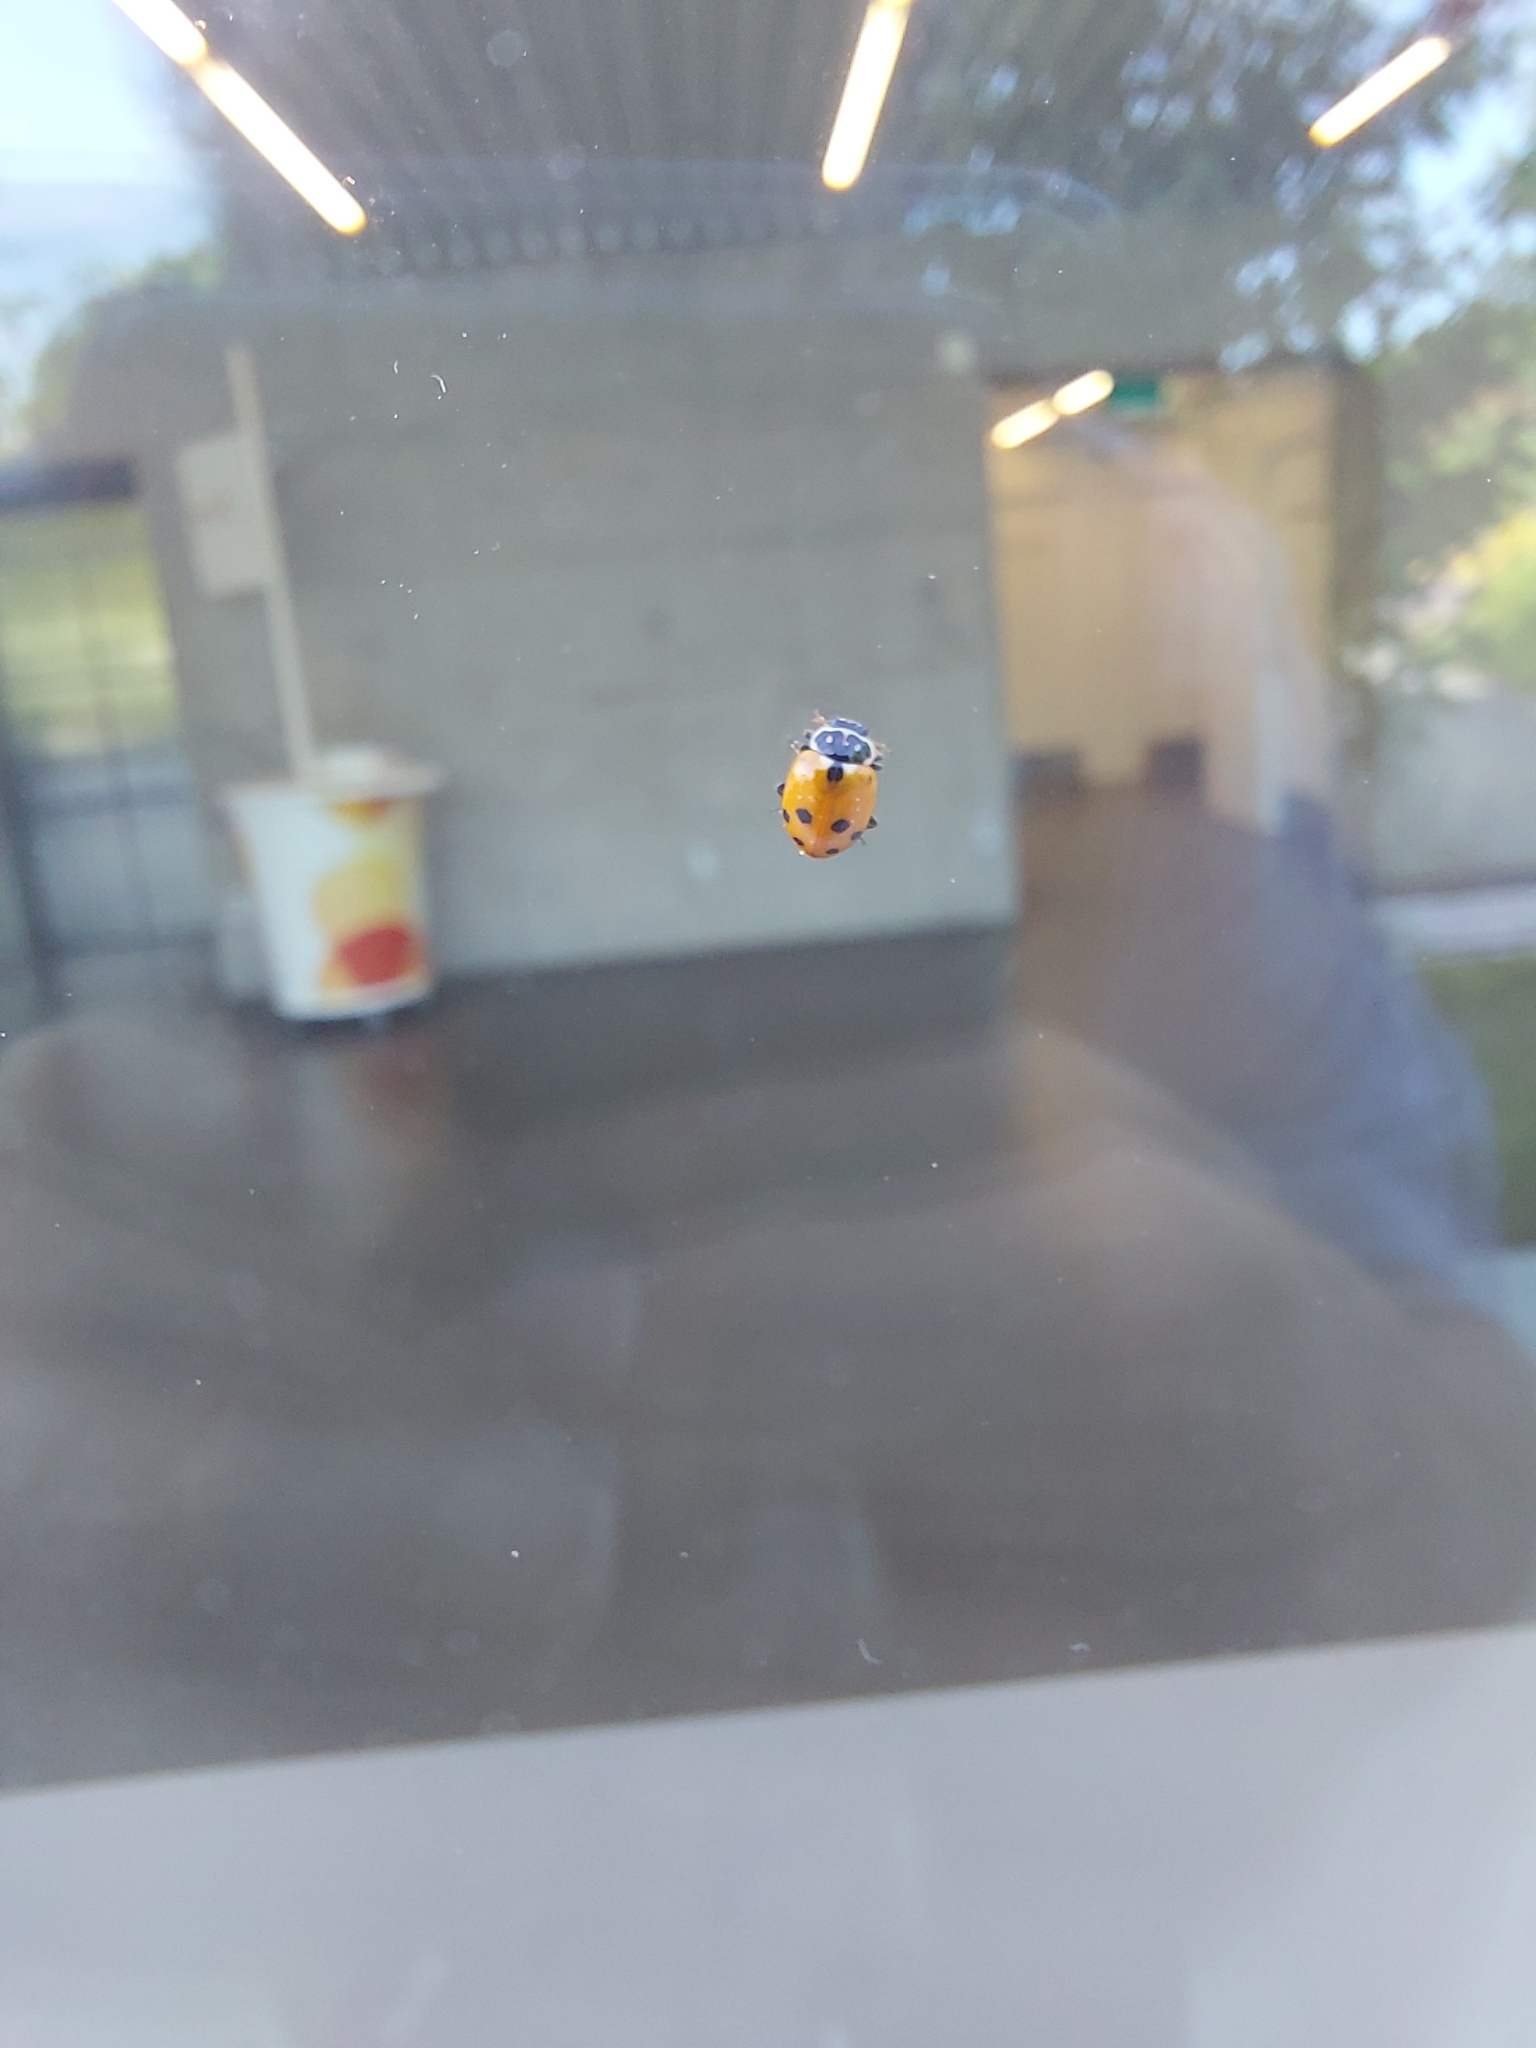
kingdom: Animalia
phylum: Arthropoda
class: Insecta
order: Coleoptera
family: Coccinellidae
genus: Hippodamia
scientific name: Hippodamia variegata
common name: Ladybird beetle
